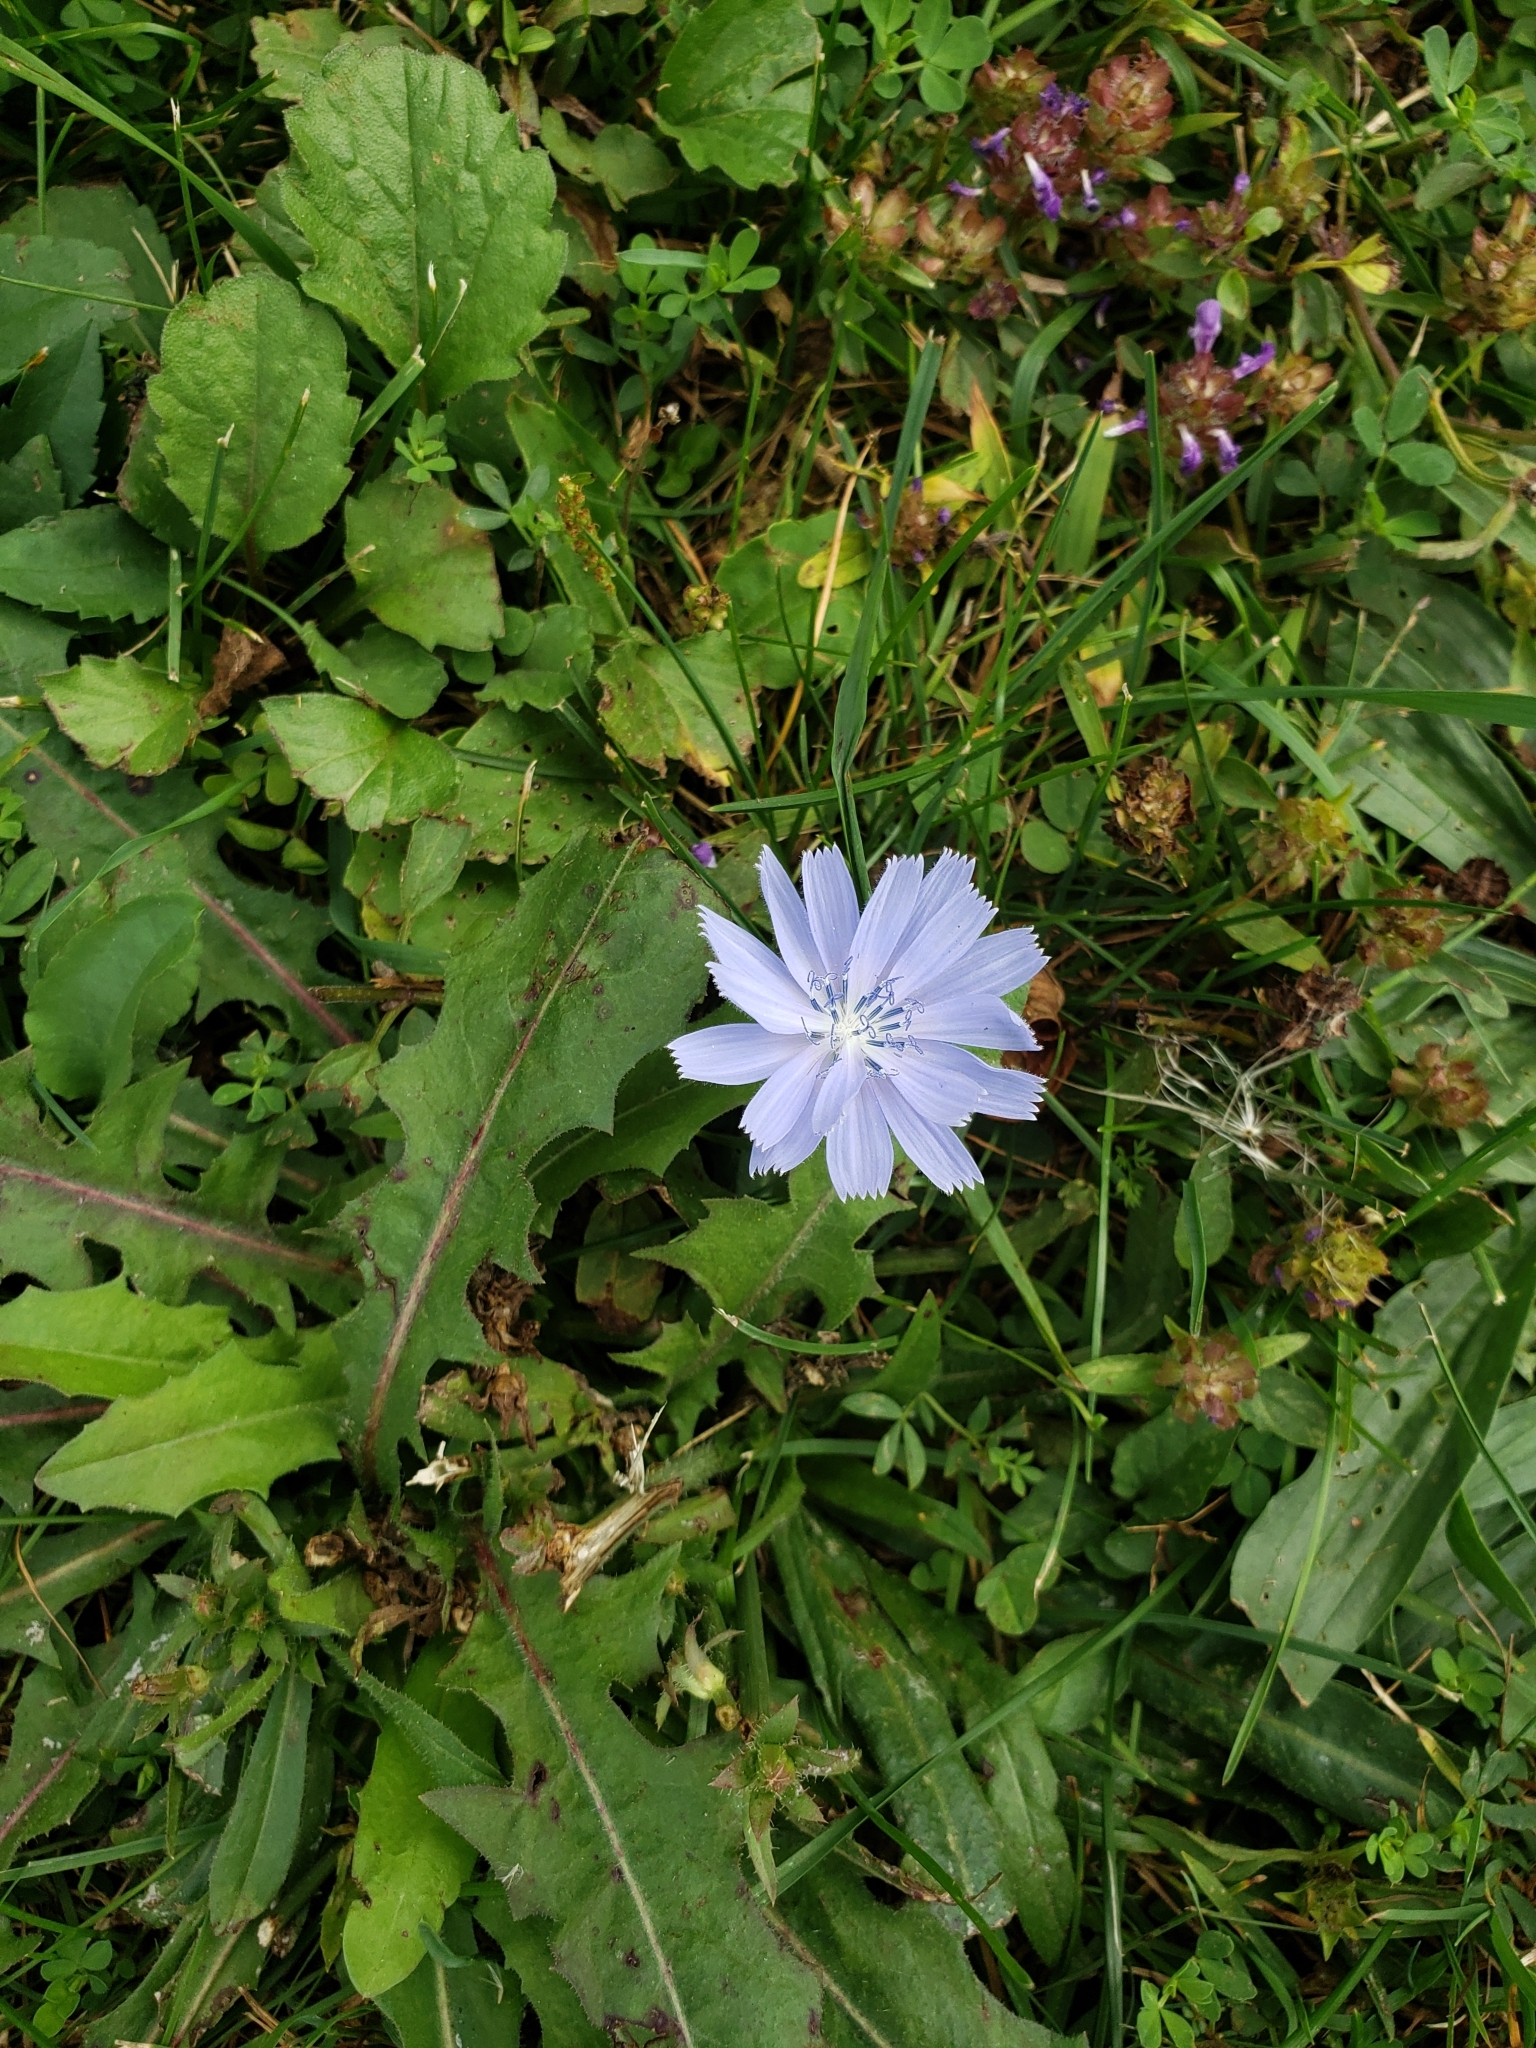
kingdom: Plantae
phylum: Tracheophyta
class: Magnoliopsida
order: Asterales
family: Asteraceae
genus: Cichorium
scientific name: Cichorium intybus
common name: Chicory
